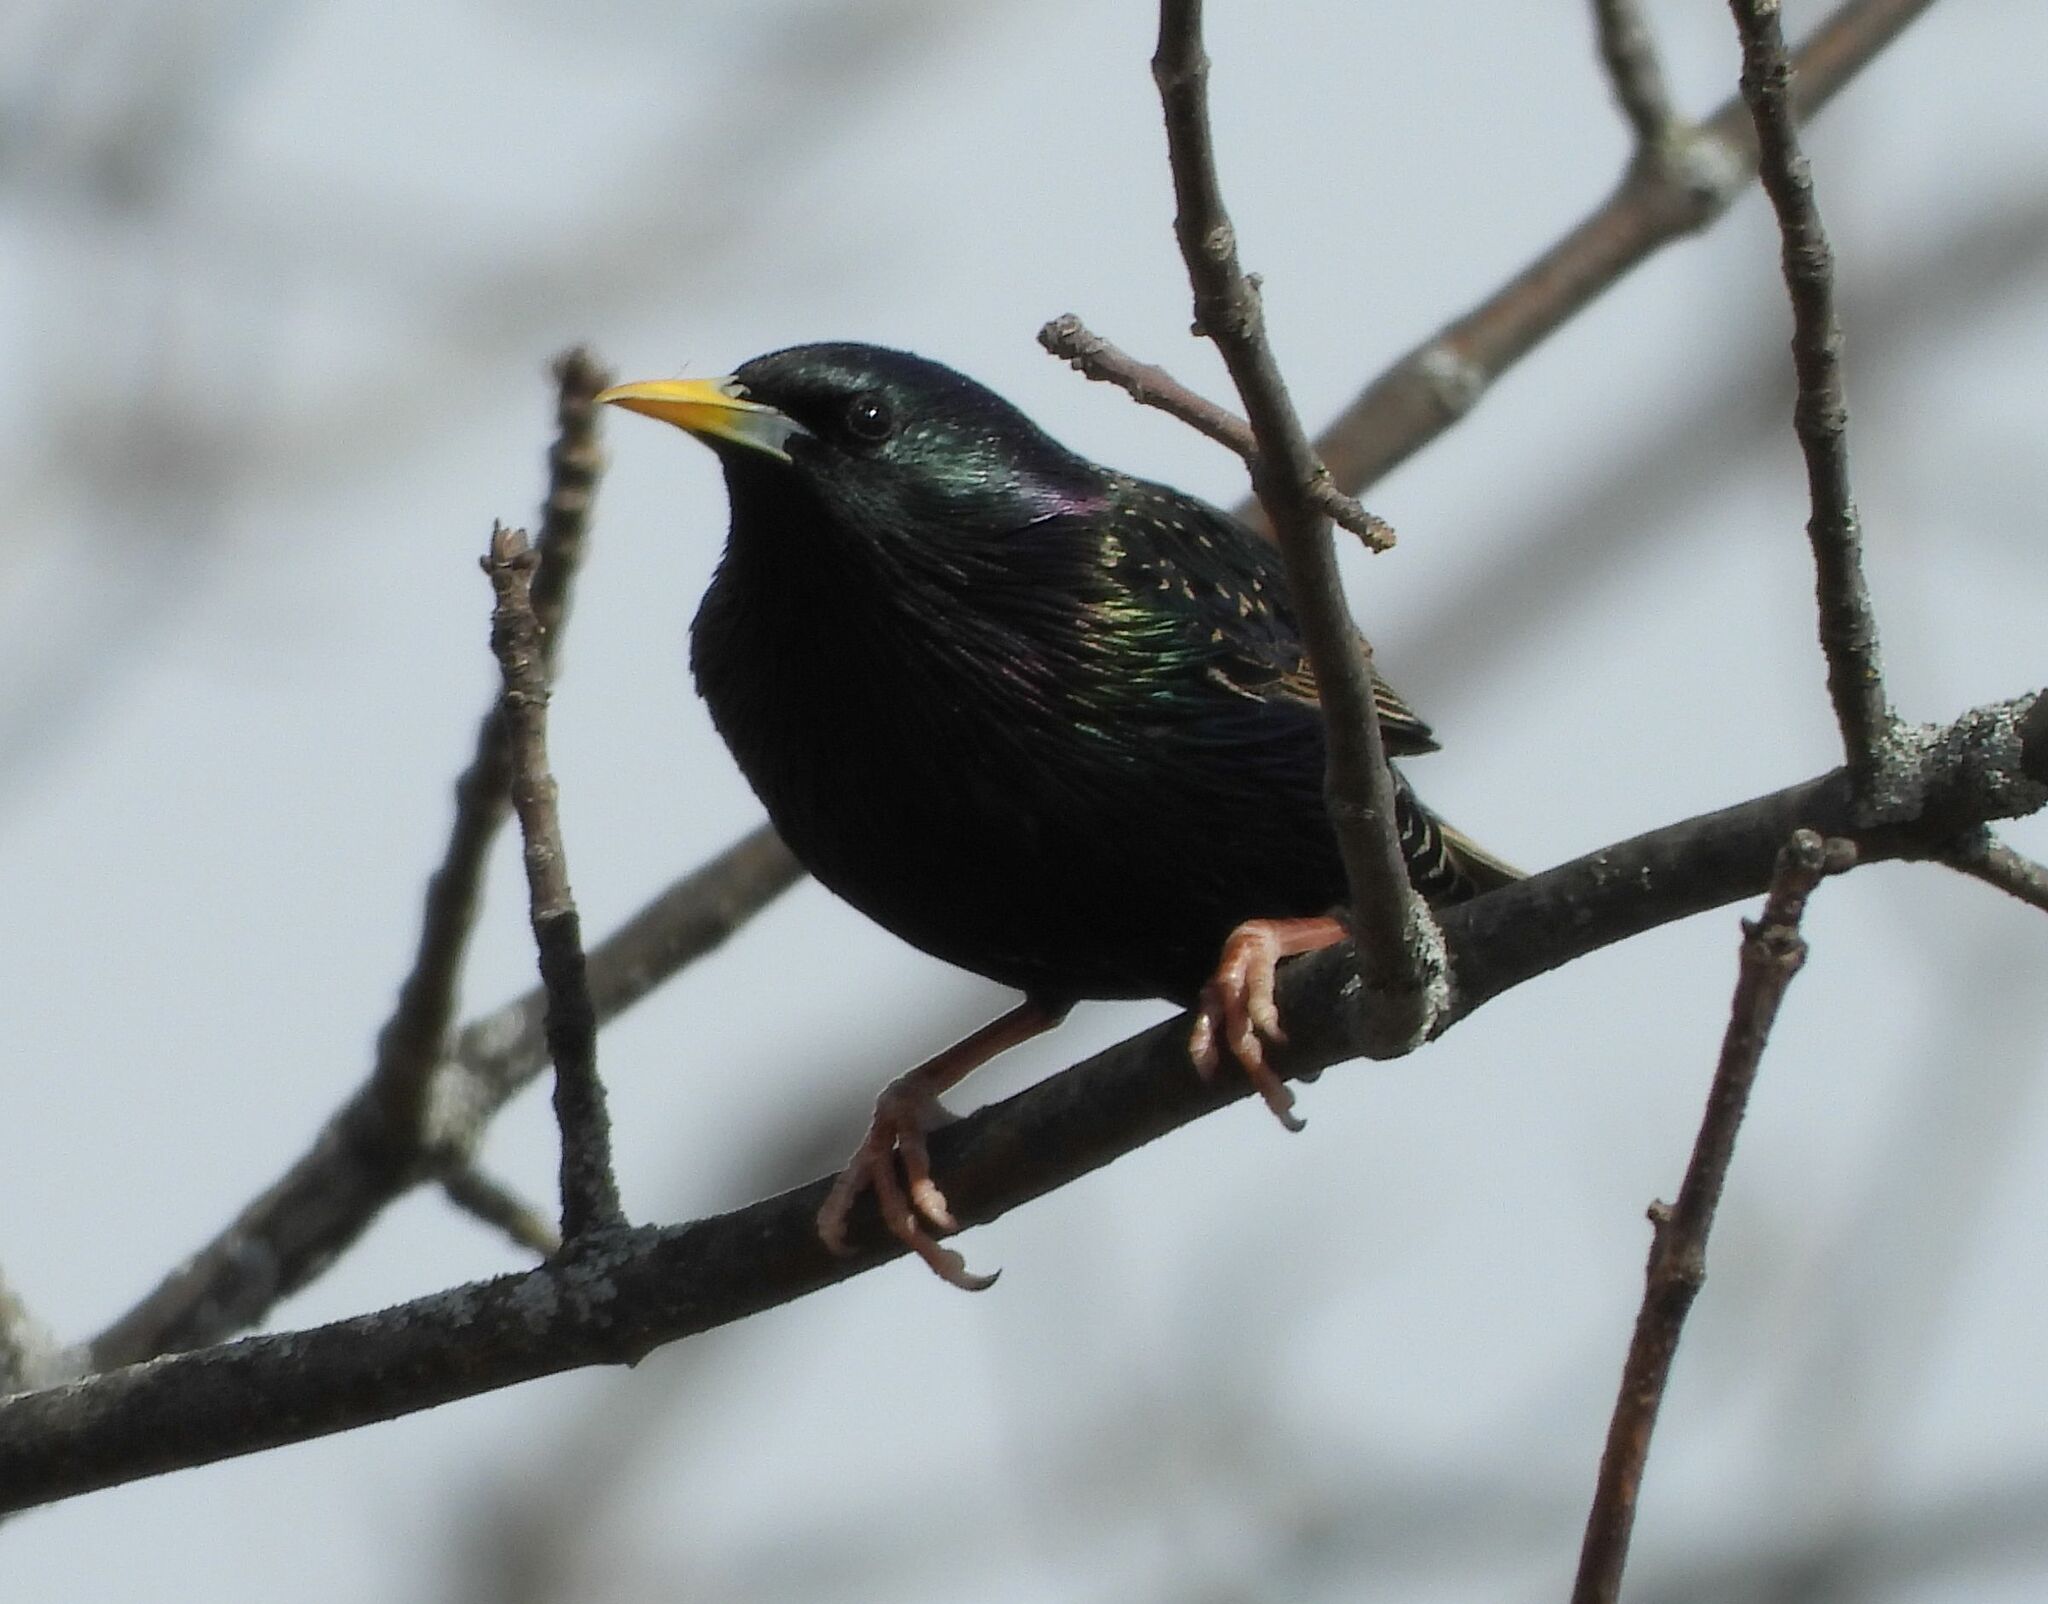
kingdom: Animalia
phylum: Chordata
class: Aves
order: Passeriformes
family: Sturnidae
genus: Sturnus
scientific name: Sturnus vulgaris
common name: Common starling
